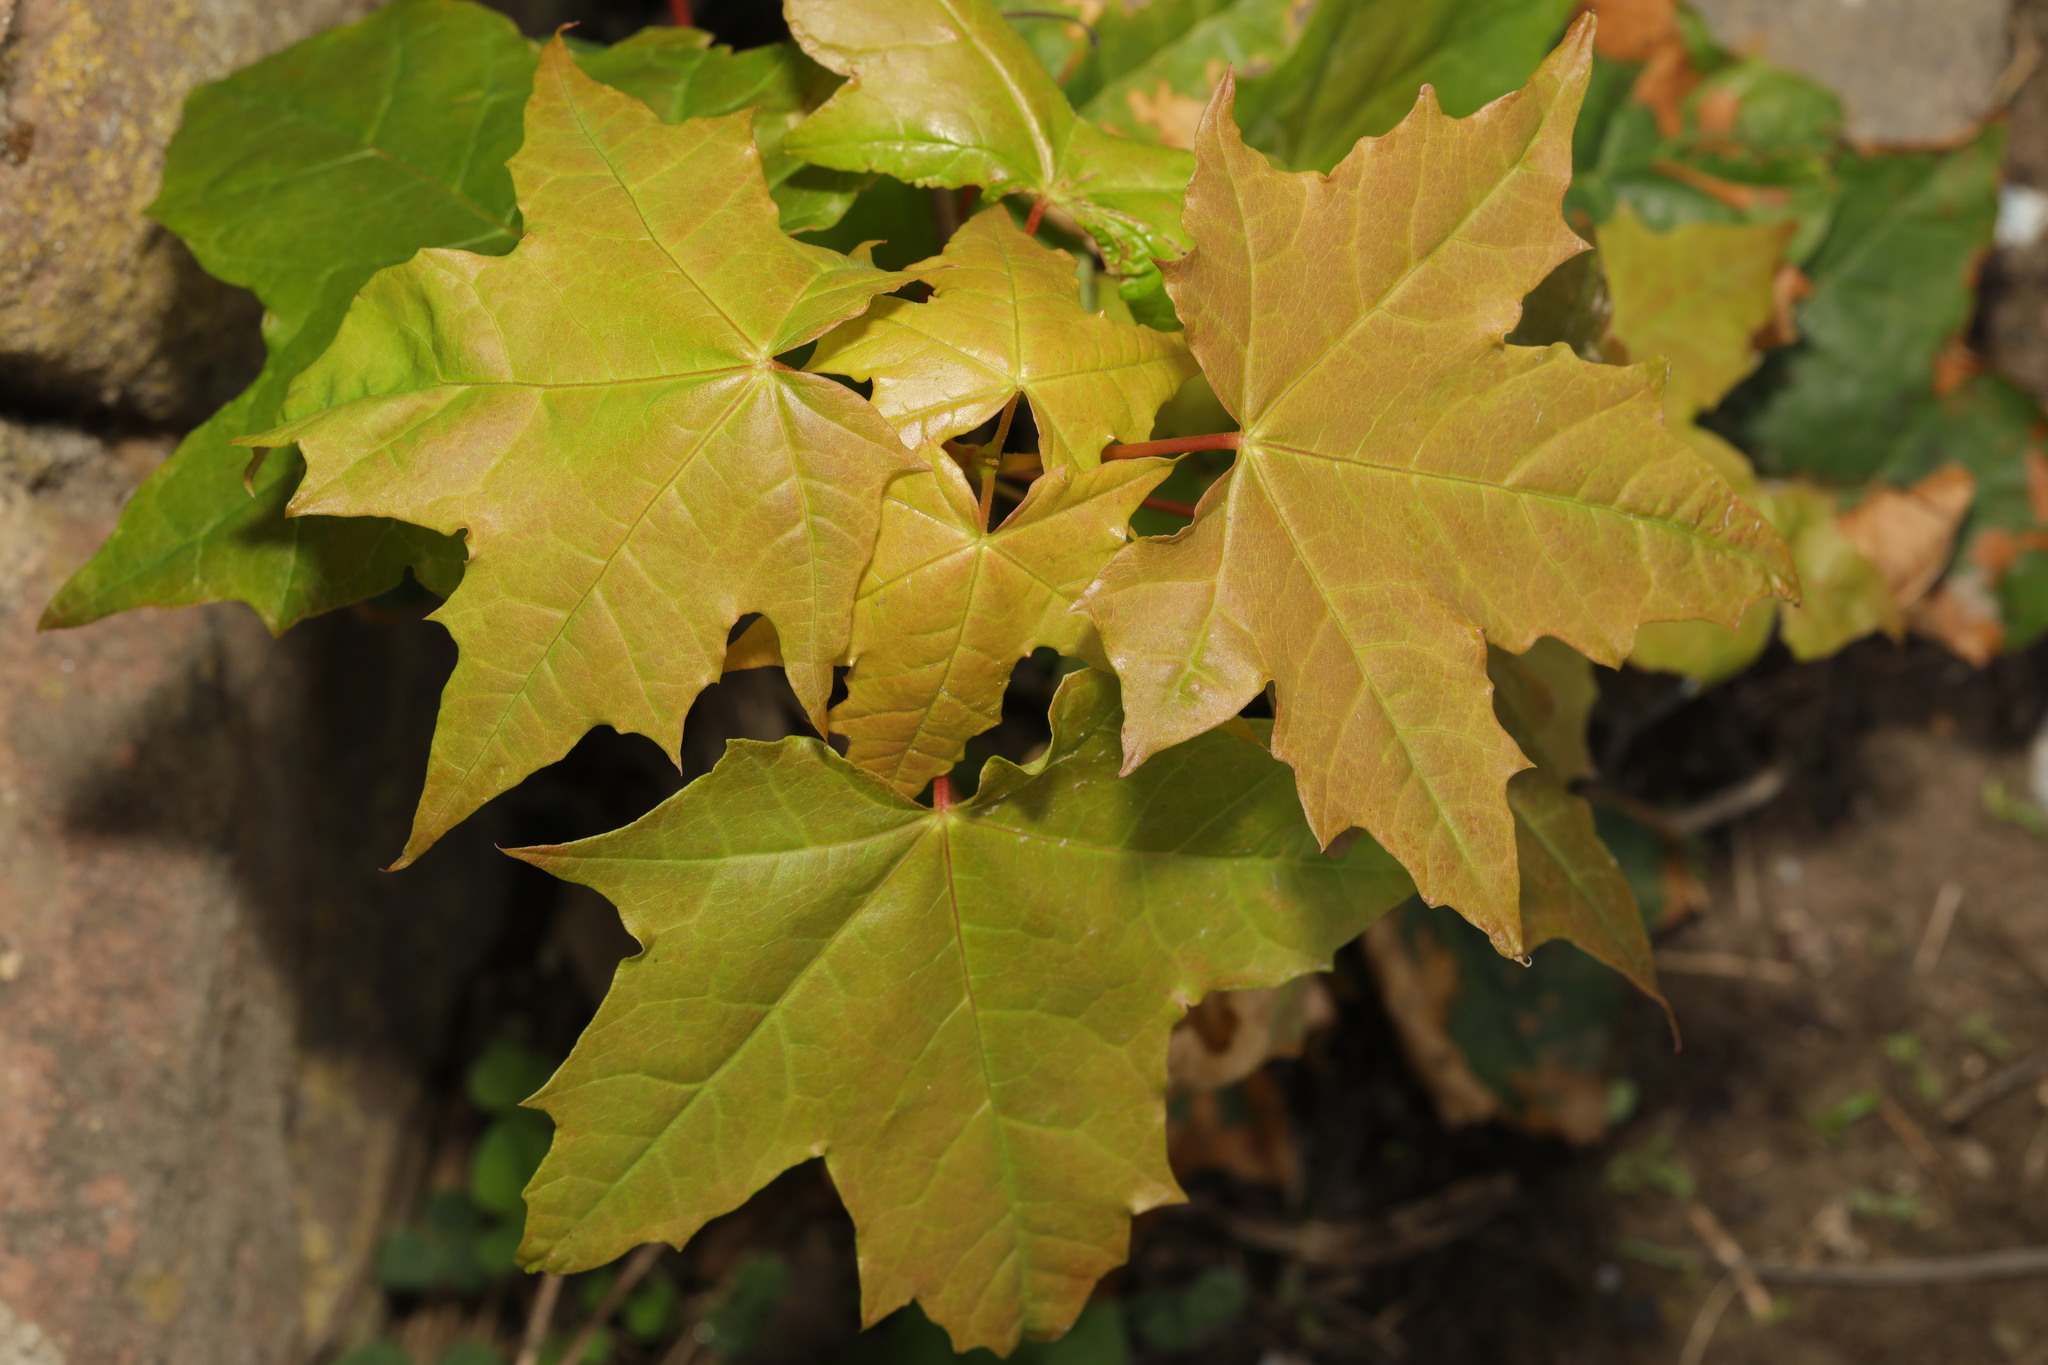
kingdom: Plantae
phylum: Tracheophyta
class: Magnoliopsida
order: Sapindales
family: Sapindaceae
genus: Acer
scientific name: Acer platanoides
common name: Norway maple
